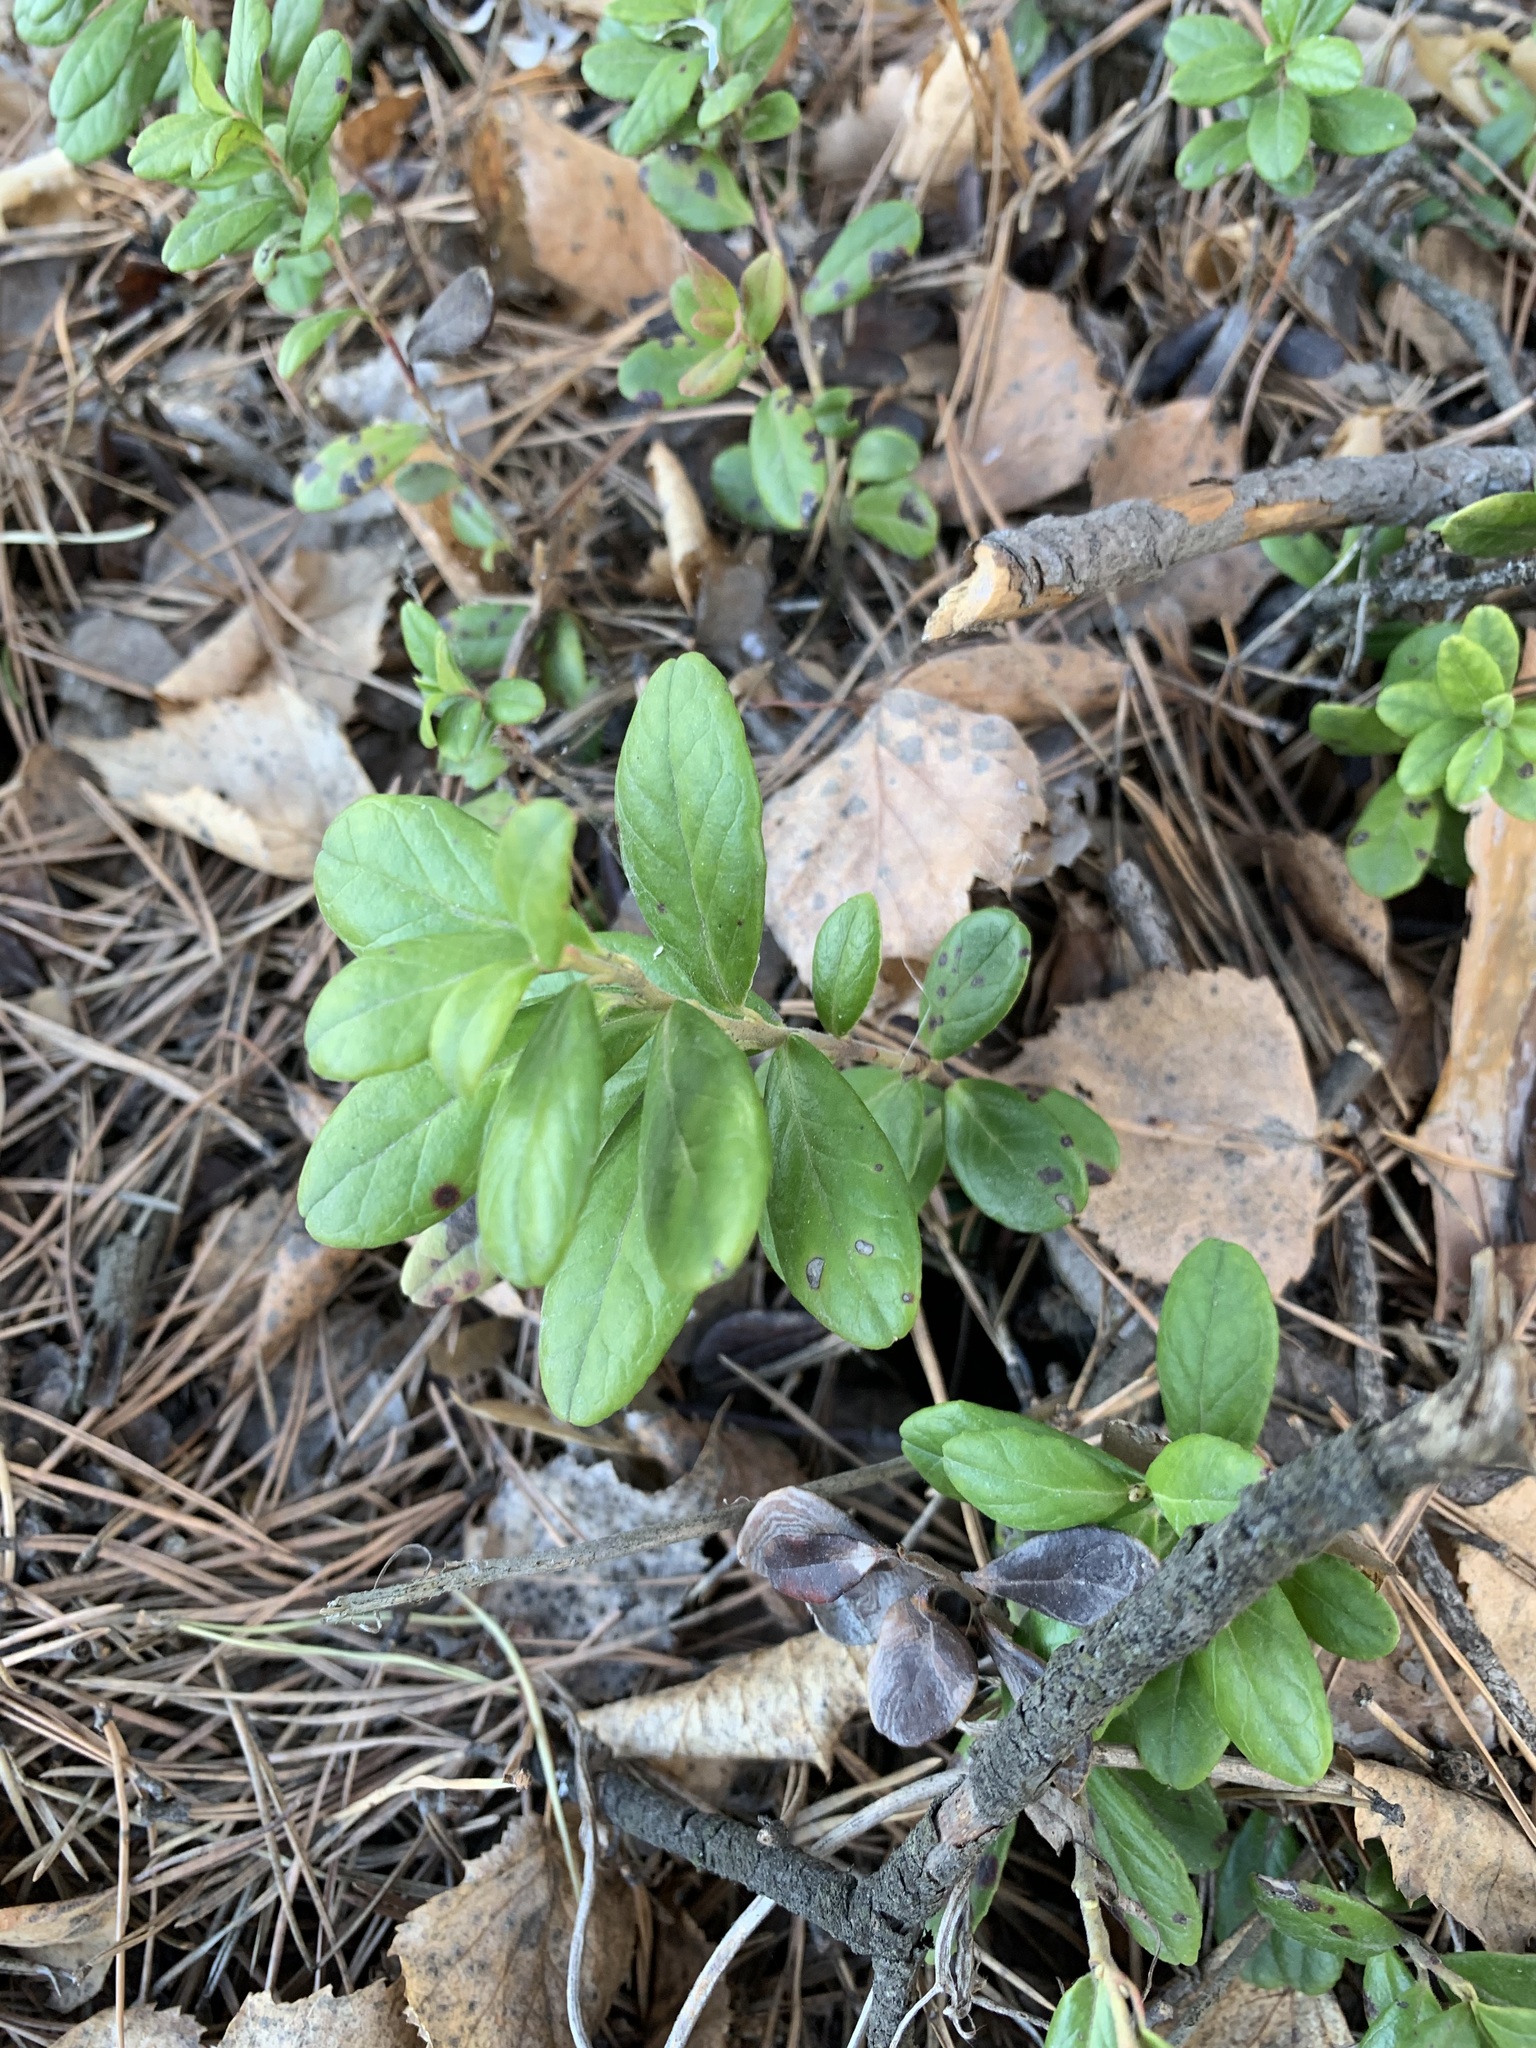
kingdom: Plantae
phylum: Tracheophyta
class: Magnoliopsida
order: Ericales
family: Ericaceae
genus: Vaccinium
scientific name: Vaccinium vitis-idaea
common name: Cowberry
